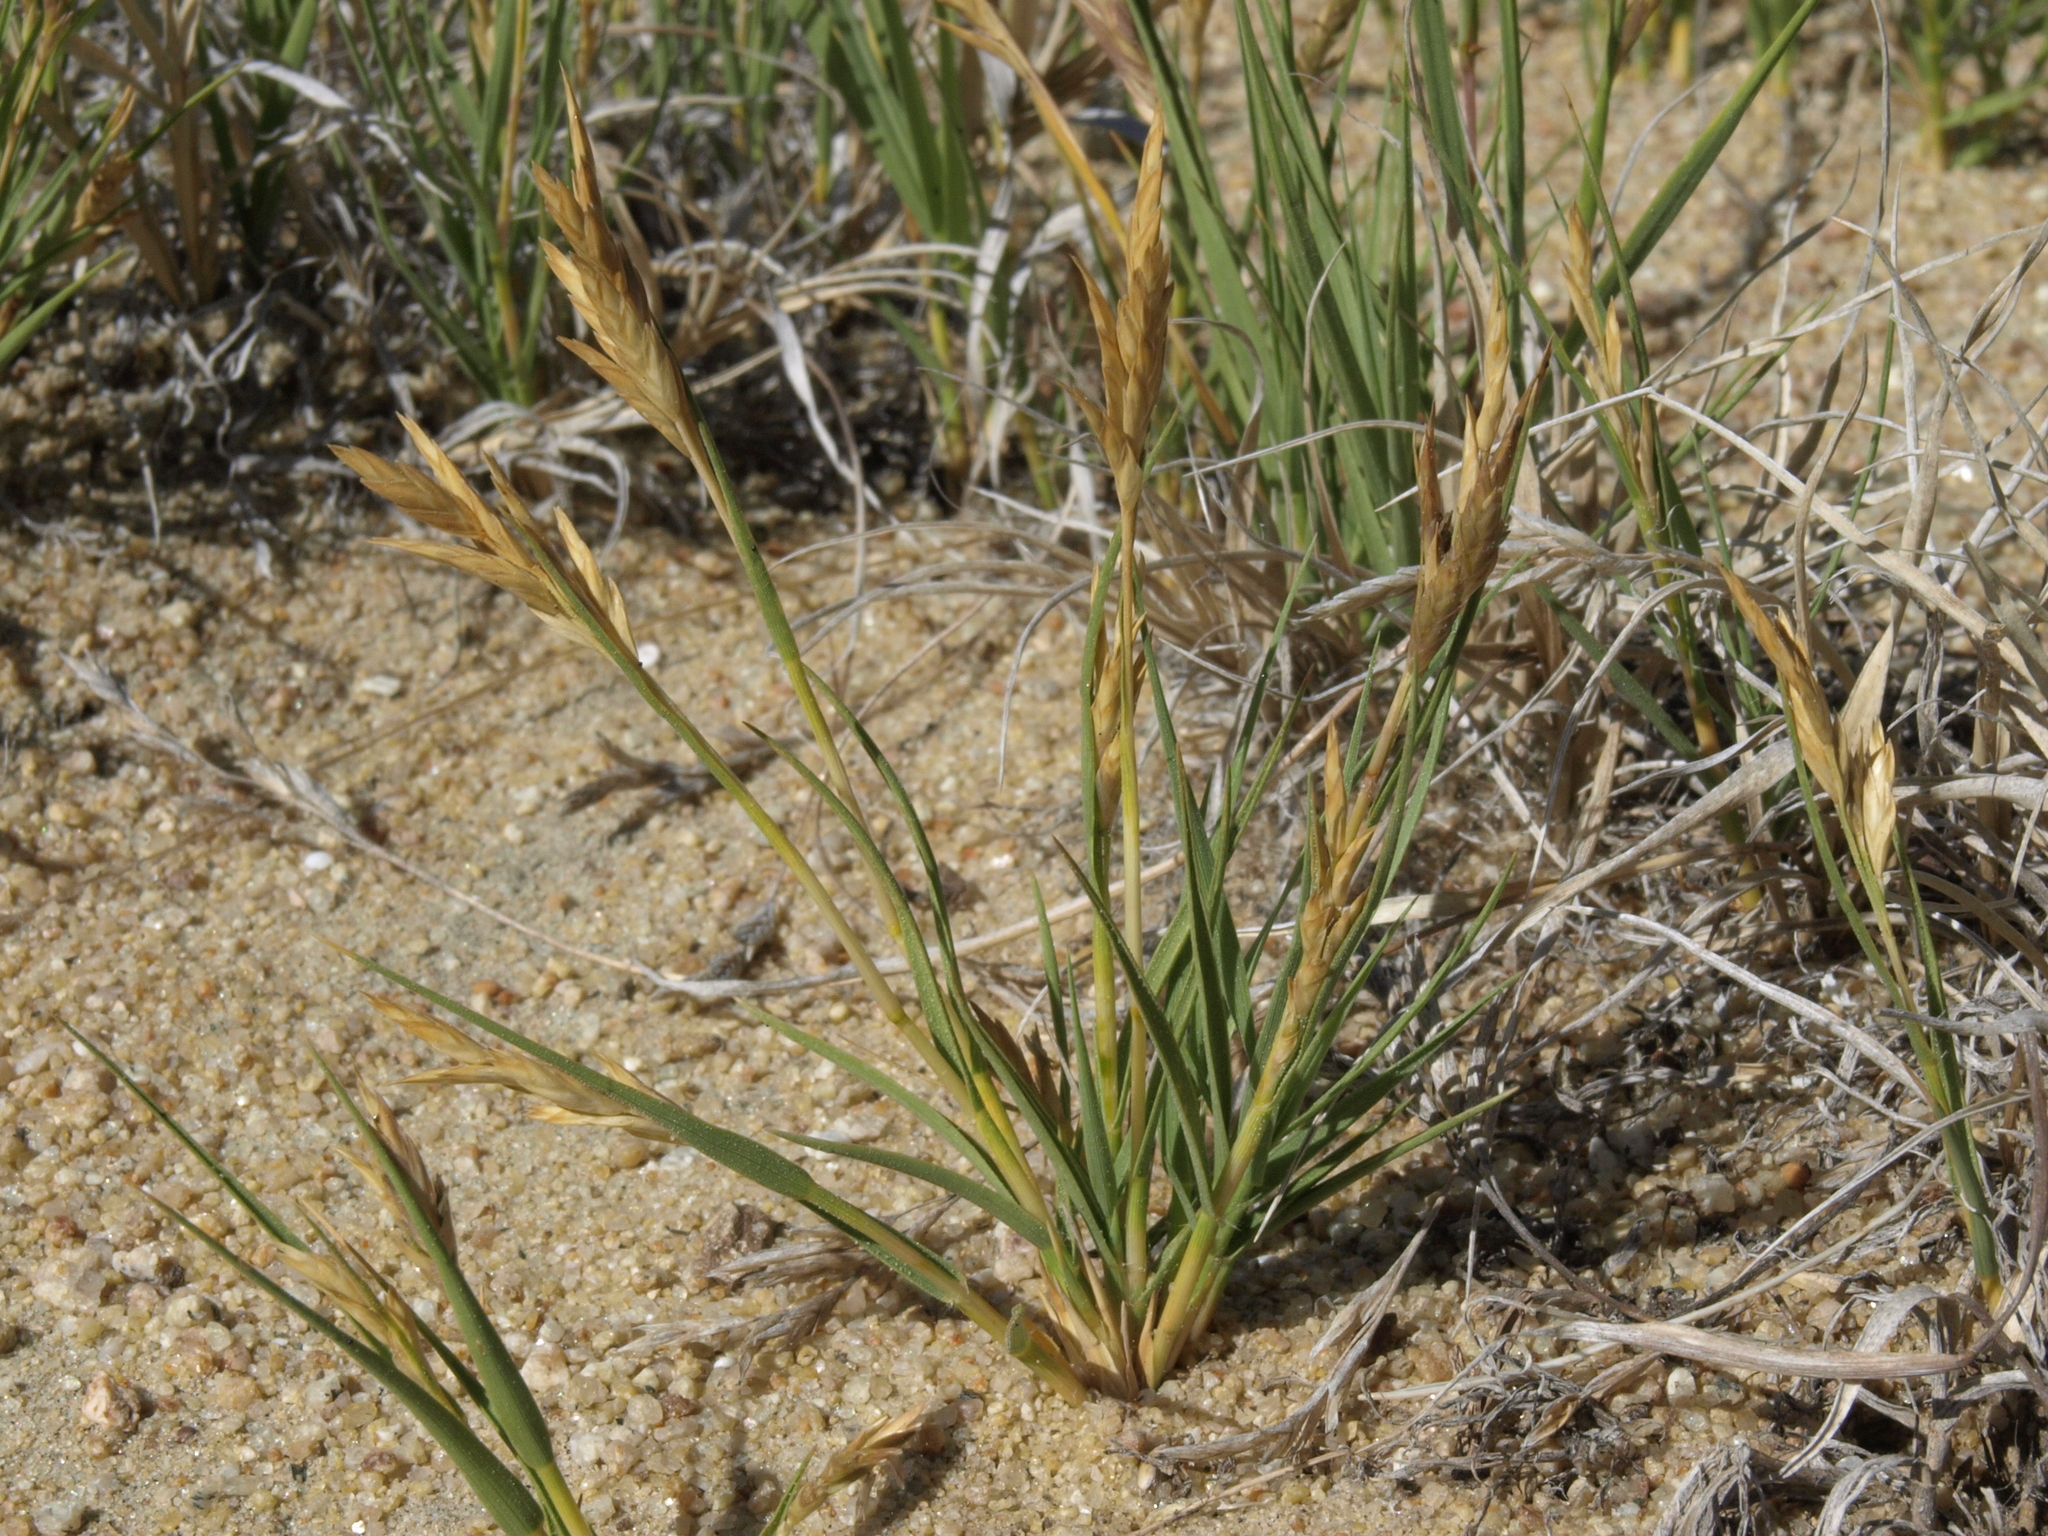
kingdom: Plantae
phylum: Tracheophyta
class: Liliopsida
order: Poales
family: Poaceae
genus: Distichlis
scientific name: Distichlis spicata
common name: Saltgrass
